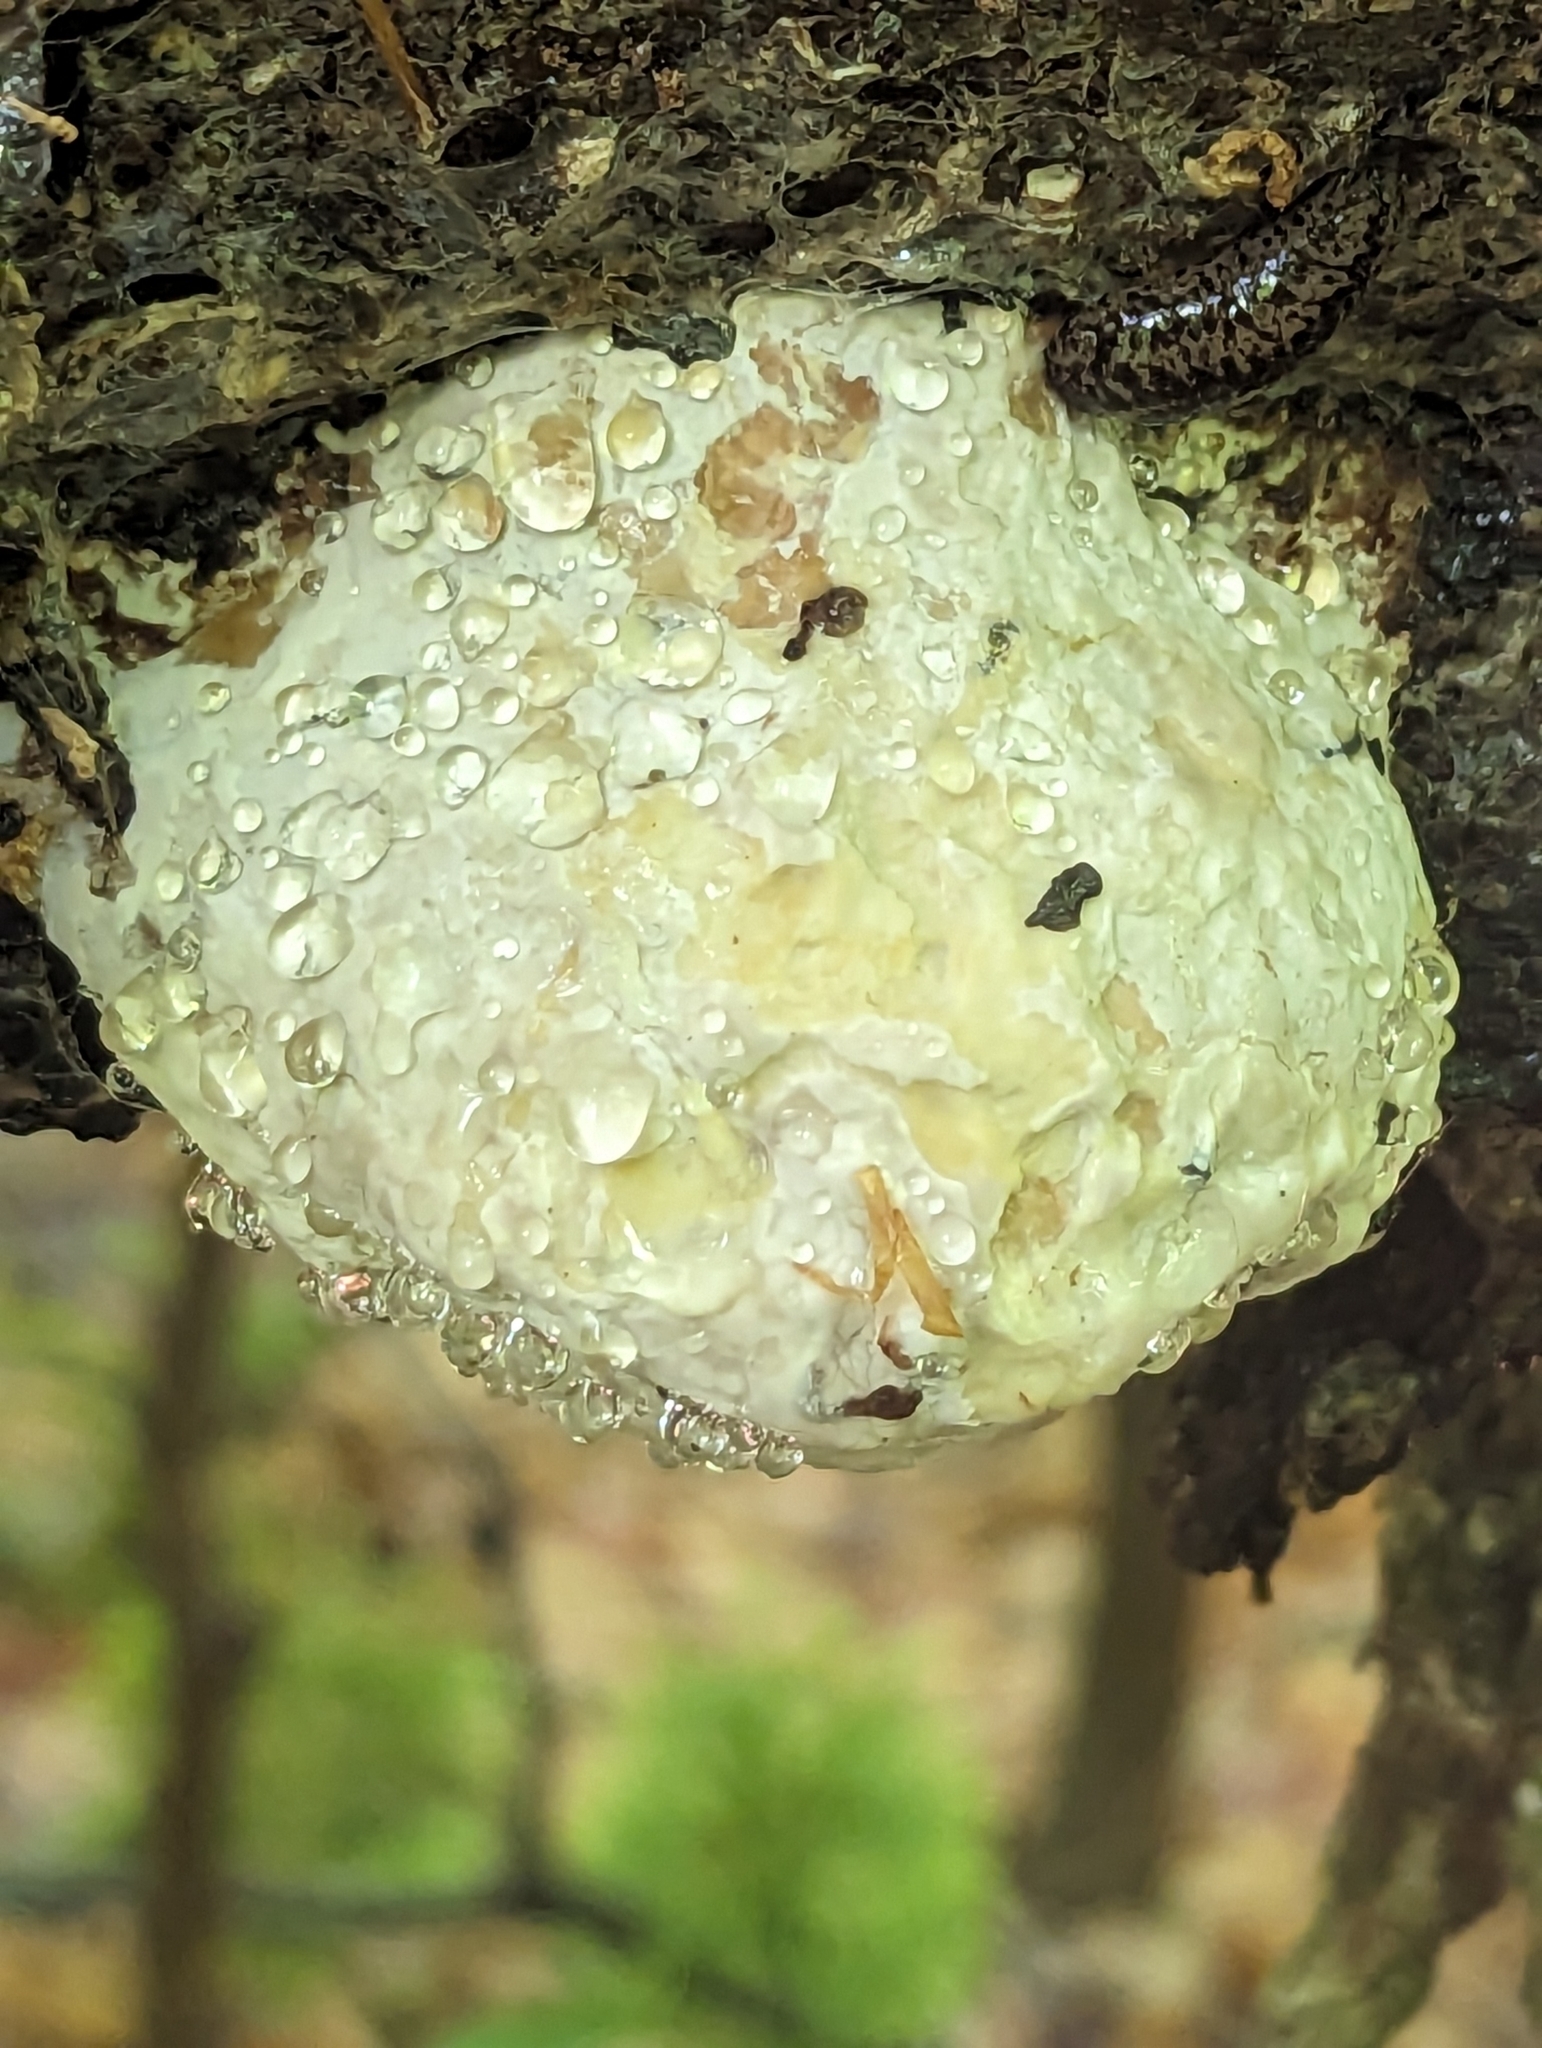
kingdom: Fungi
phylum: Basidiomycota
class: Agaricomycetes
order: Polyporales
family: Fomitopsidaceae
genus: Niveoporofomes
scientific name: Niveoporofomes spraguei
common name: Green cheese polypore
